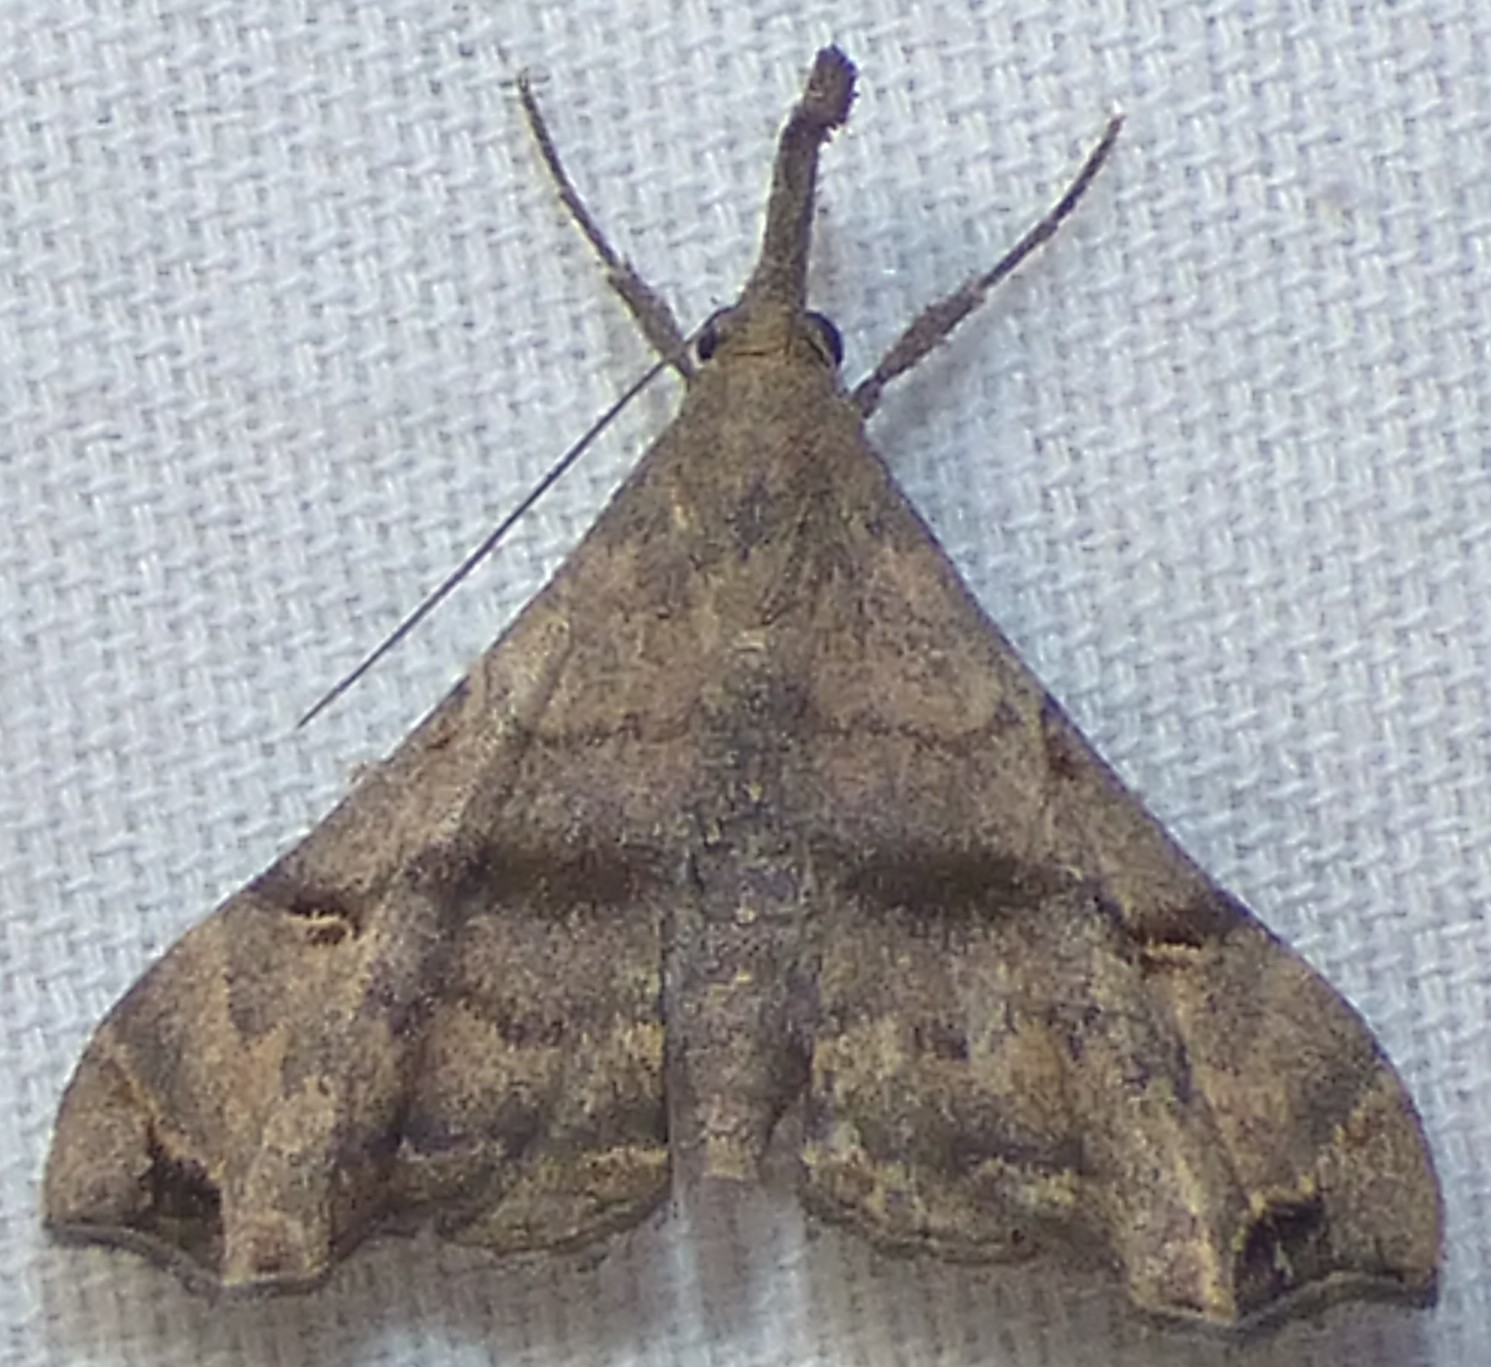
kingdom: Animalia
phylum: Arthropoda
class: Insecta
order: Lepidoptera
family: Erebidae
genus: Palthis
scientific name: Palthis asopialis
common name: Faint-spotted palthis moth
